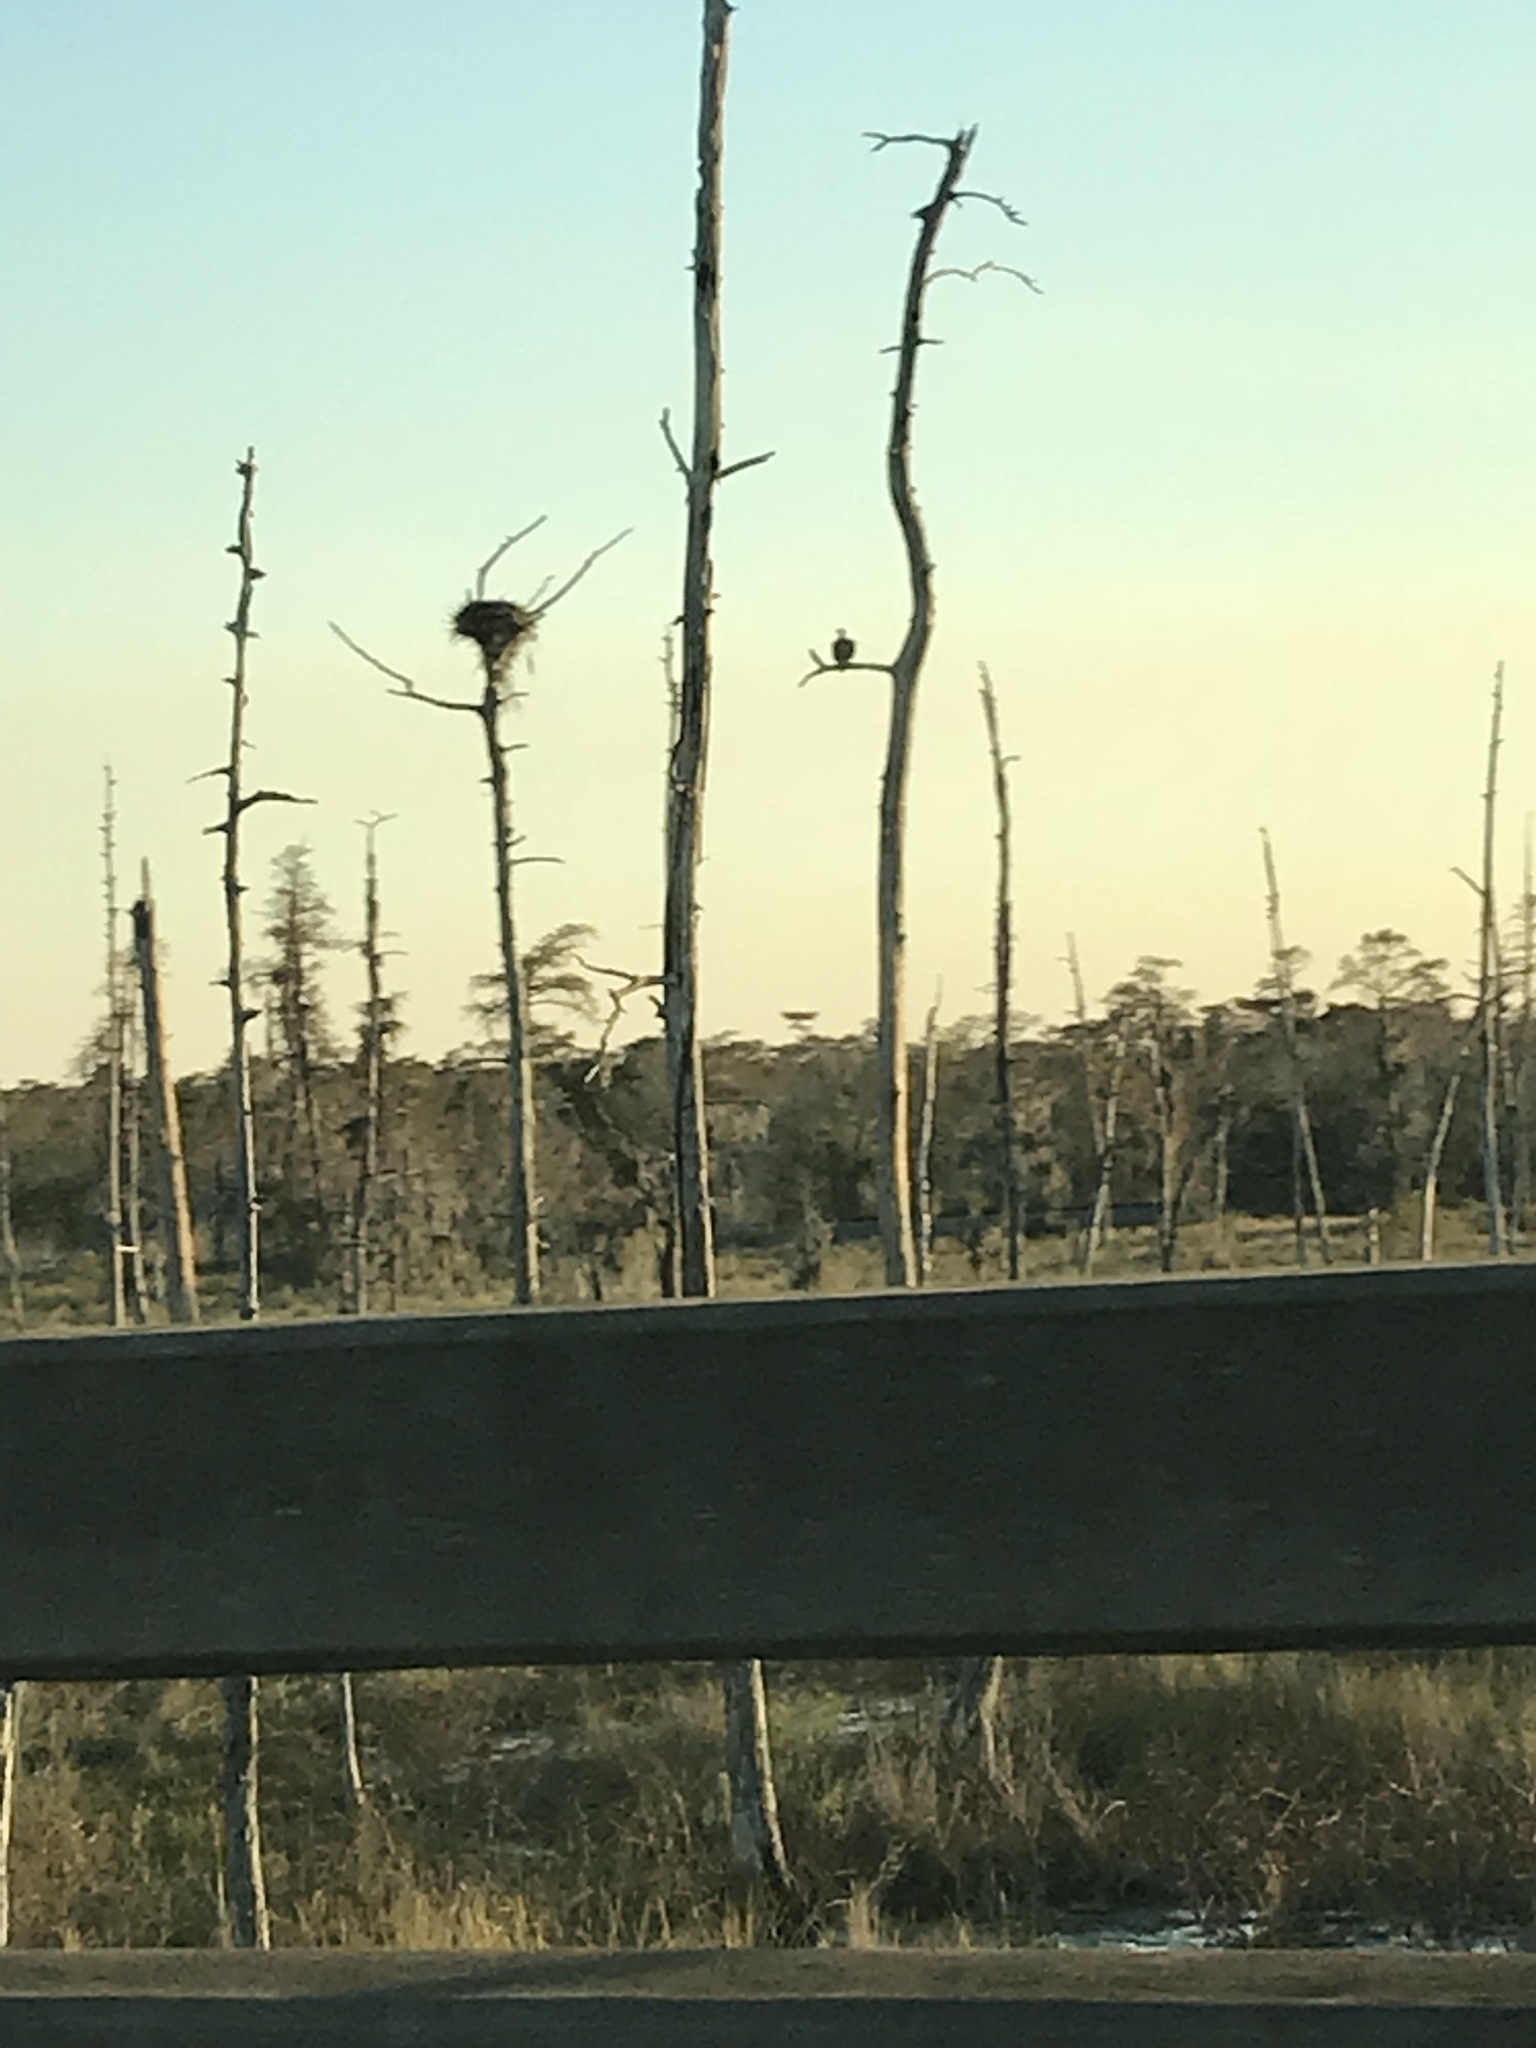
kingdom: Animalia
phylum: Chordata
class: Aves
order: Accipitriformes
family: Accipitridae
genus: Haliaeetus
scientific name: Haliaeetus leucocephalus
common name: Bald eagle
